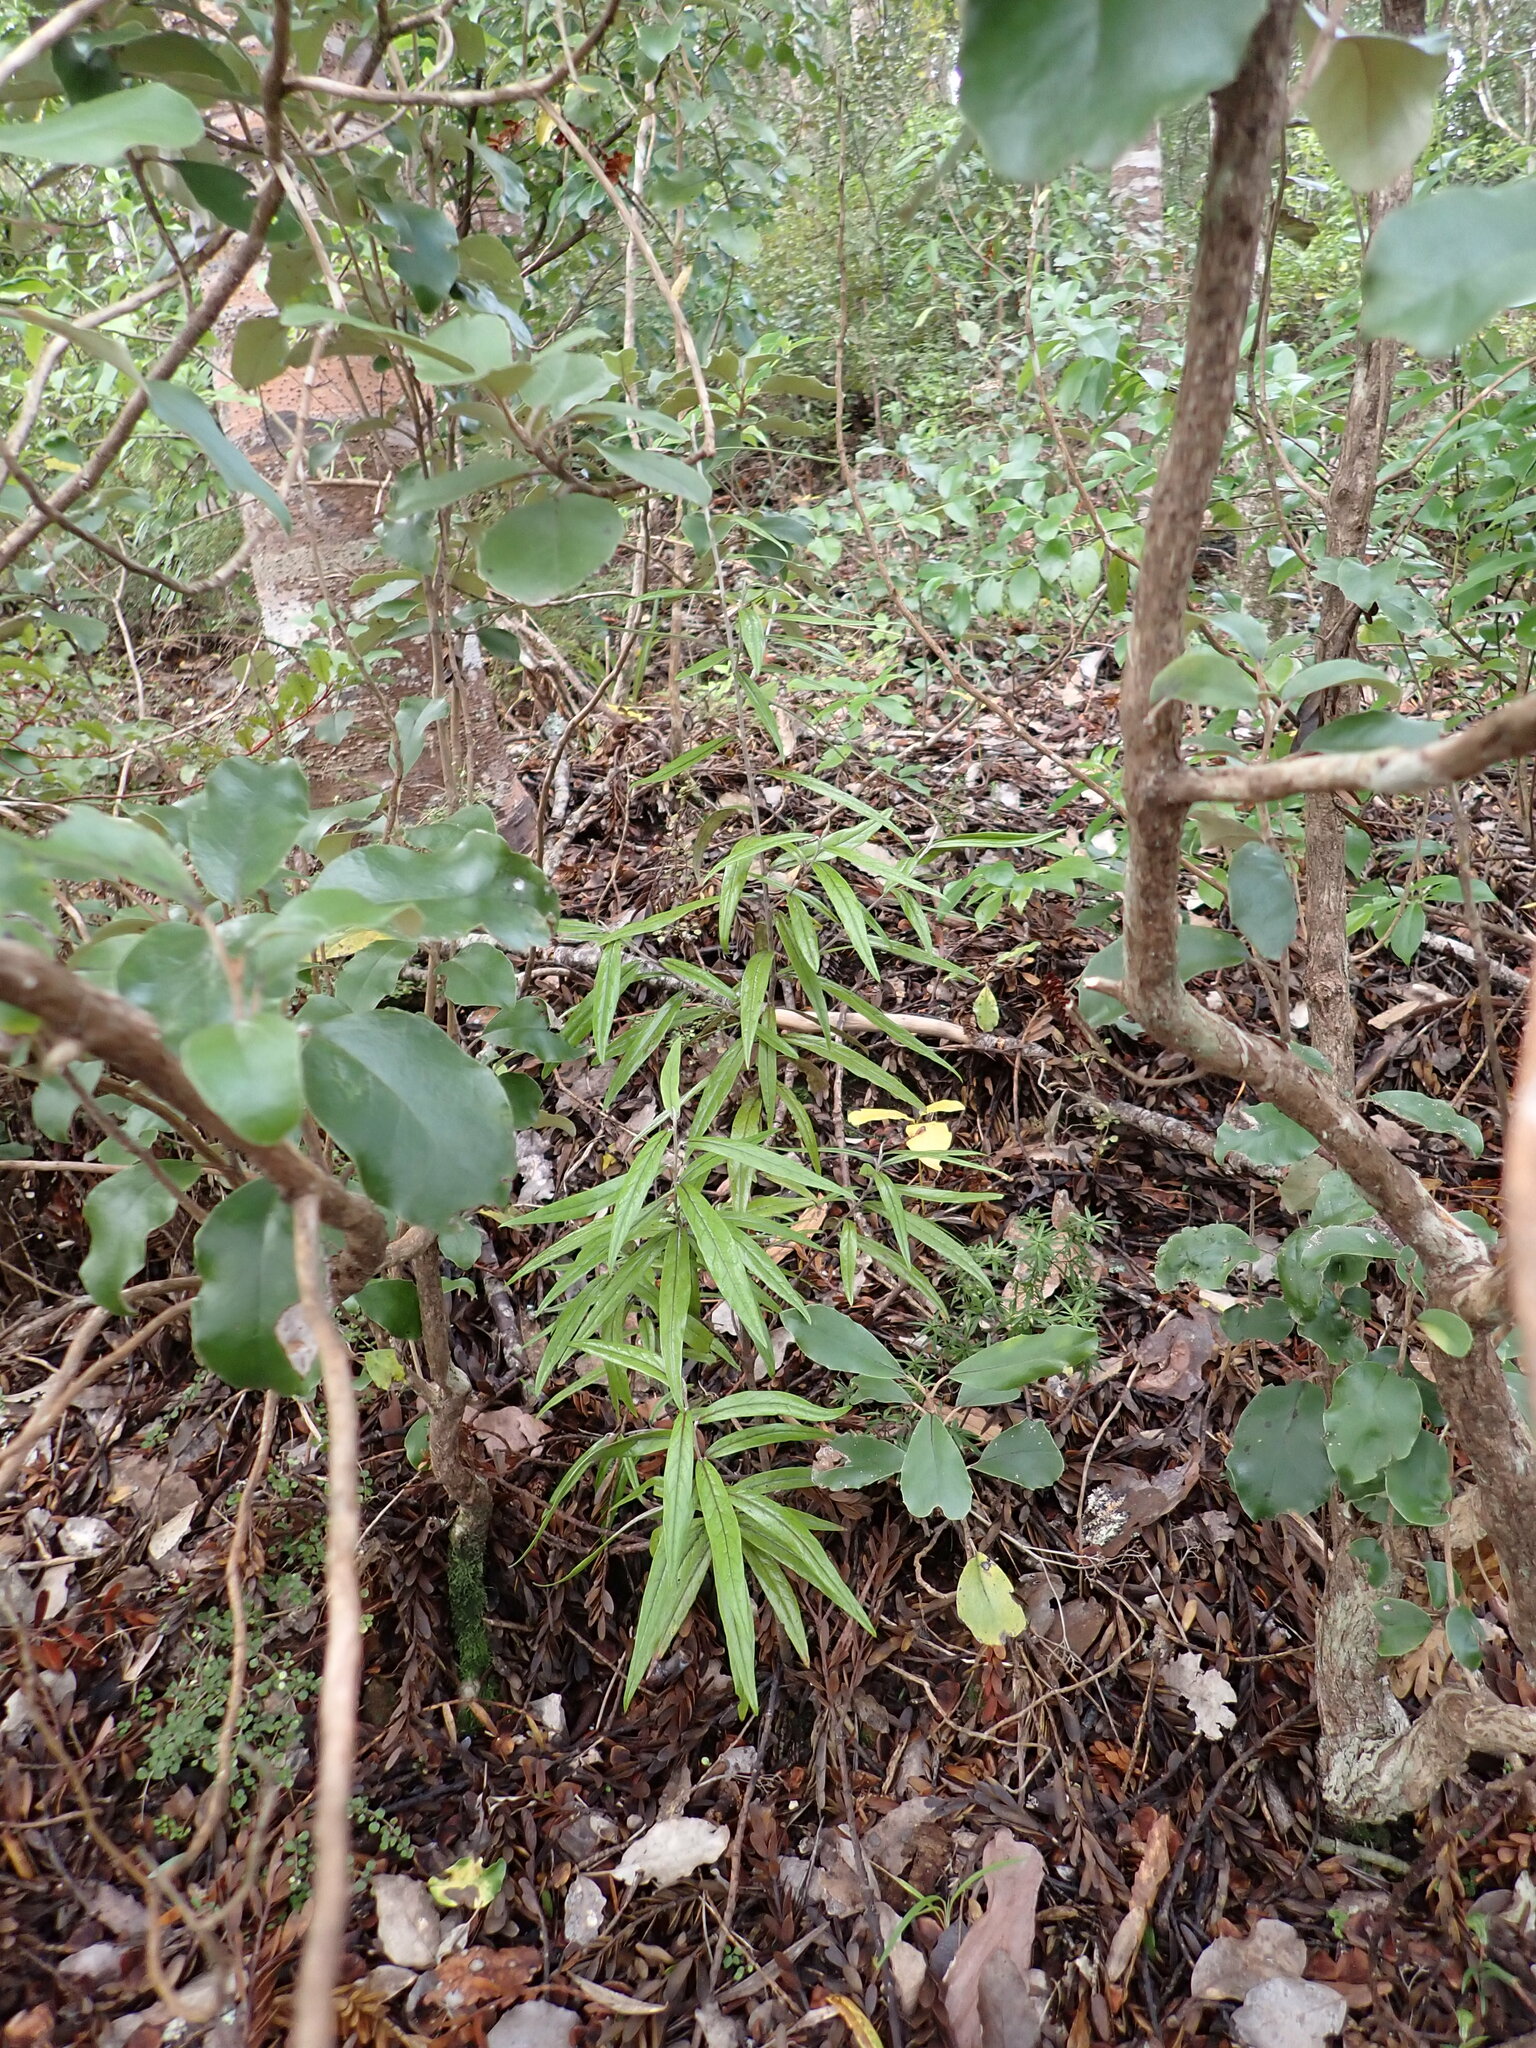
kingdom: Plantae
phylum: Tracheophyta
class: Magnoliopsida
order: Asterales
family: Argophyllaceae
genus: Corokia
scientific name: Corokia buddleioides
